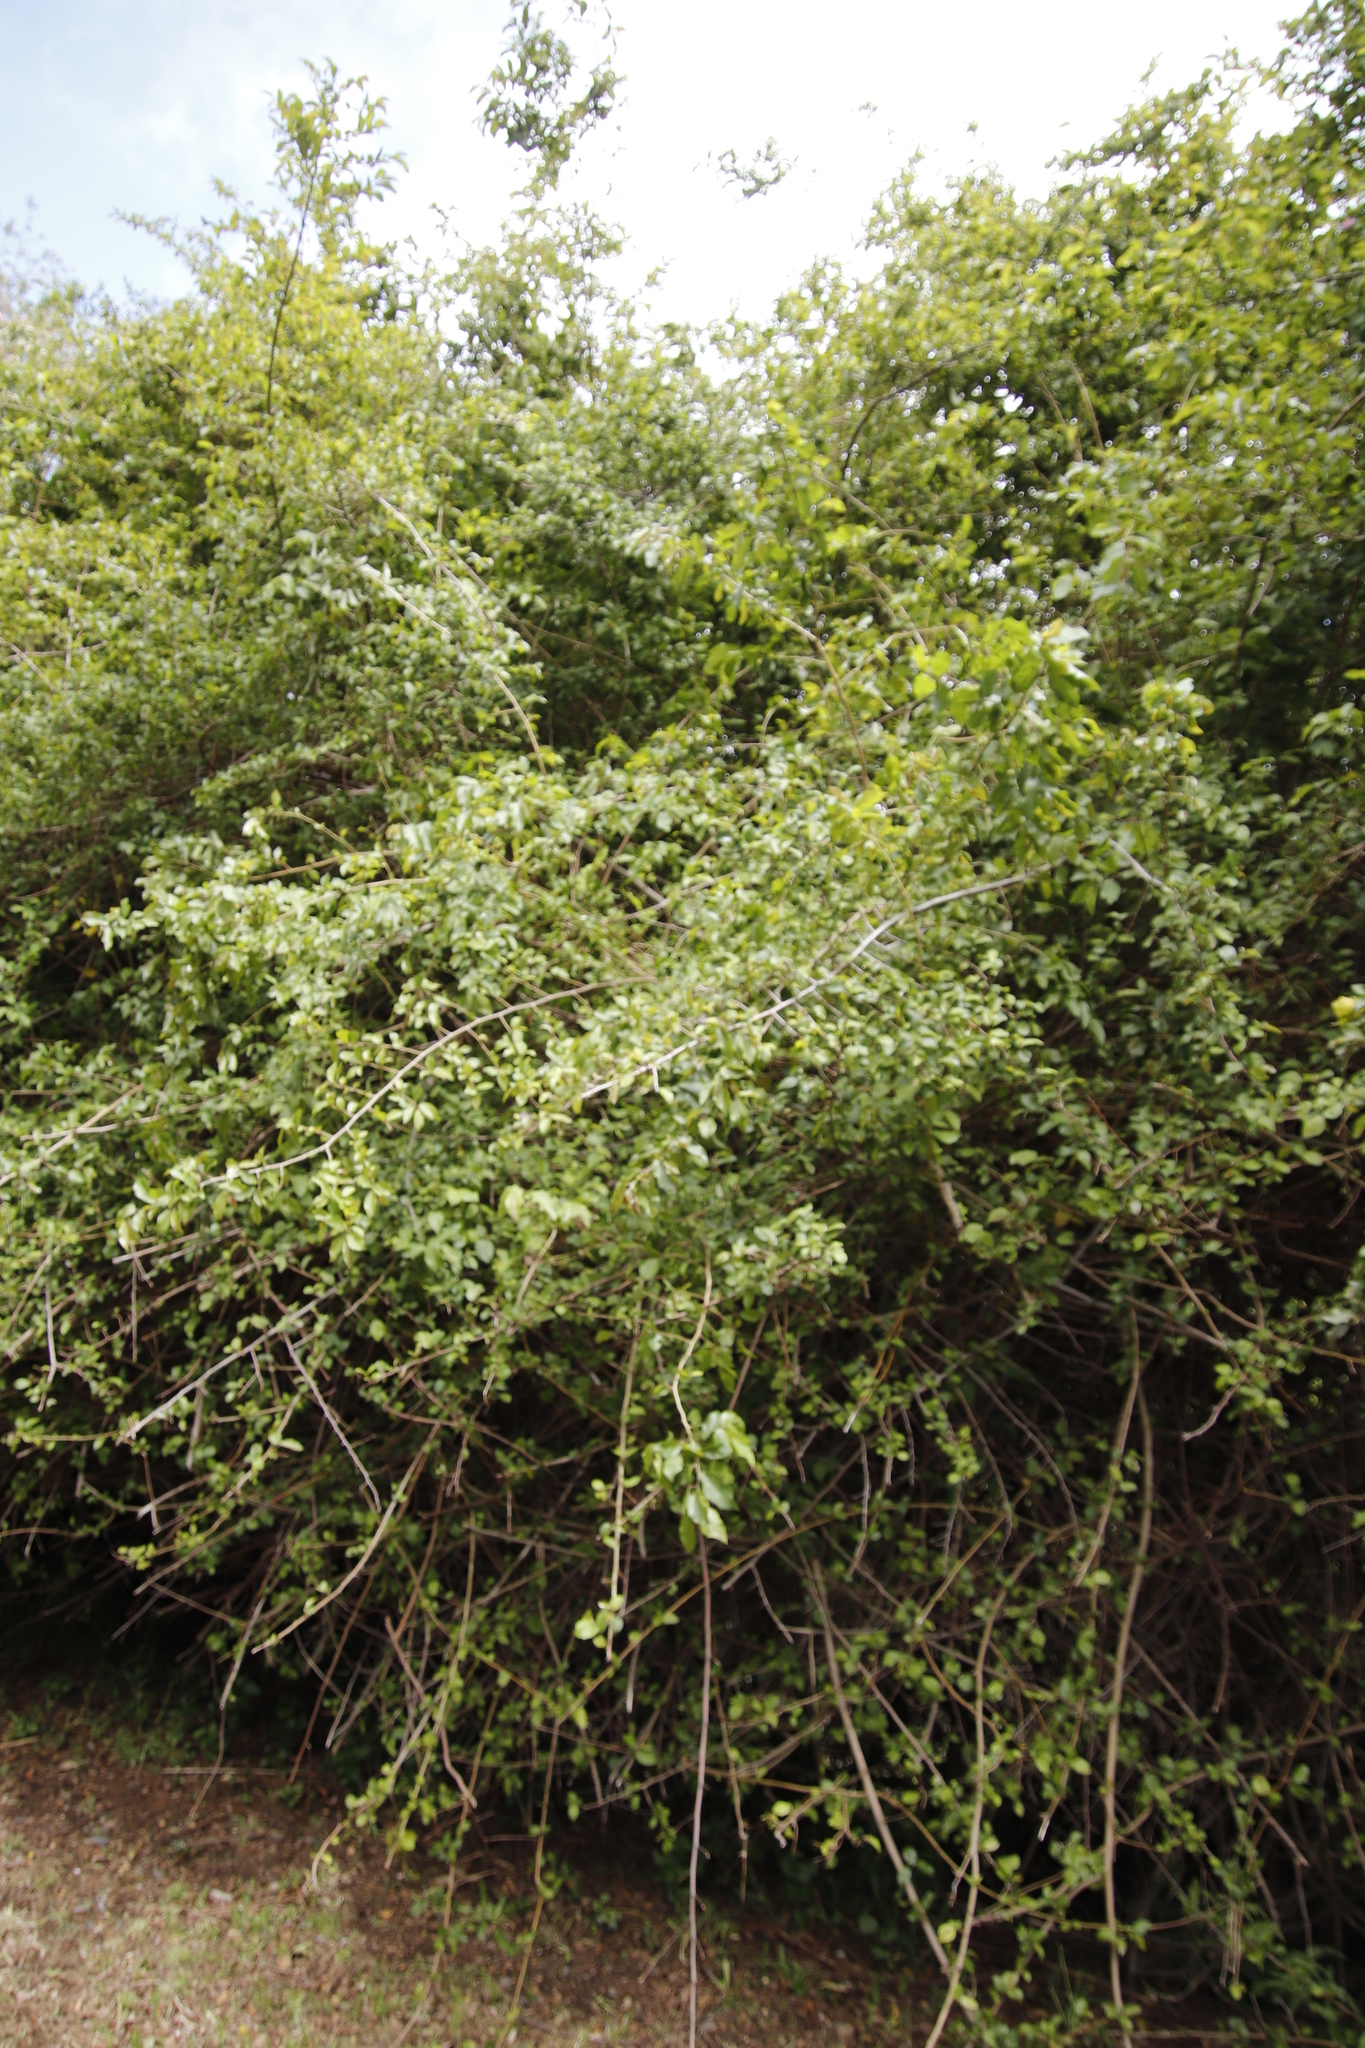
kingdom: Plantae
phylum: Tracheophyta
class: Magnoliopsida
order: Malvales
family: Malvaceae
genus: Grewia
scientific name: Grewia occidentalis
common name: Crossberry
